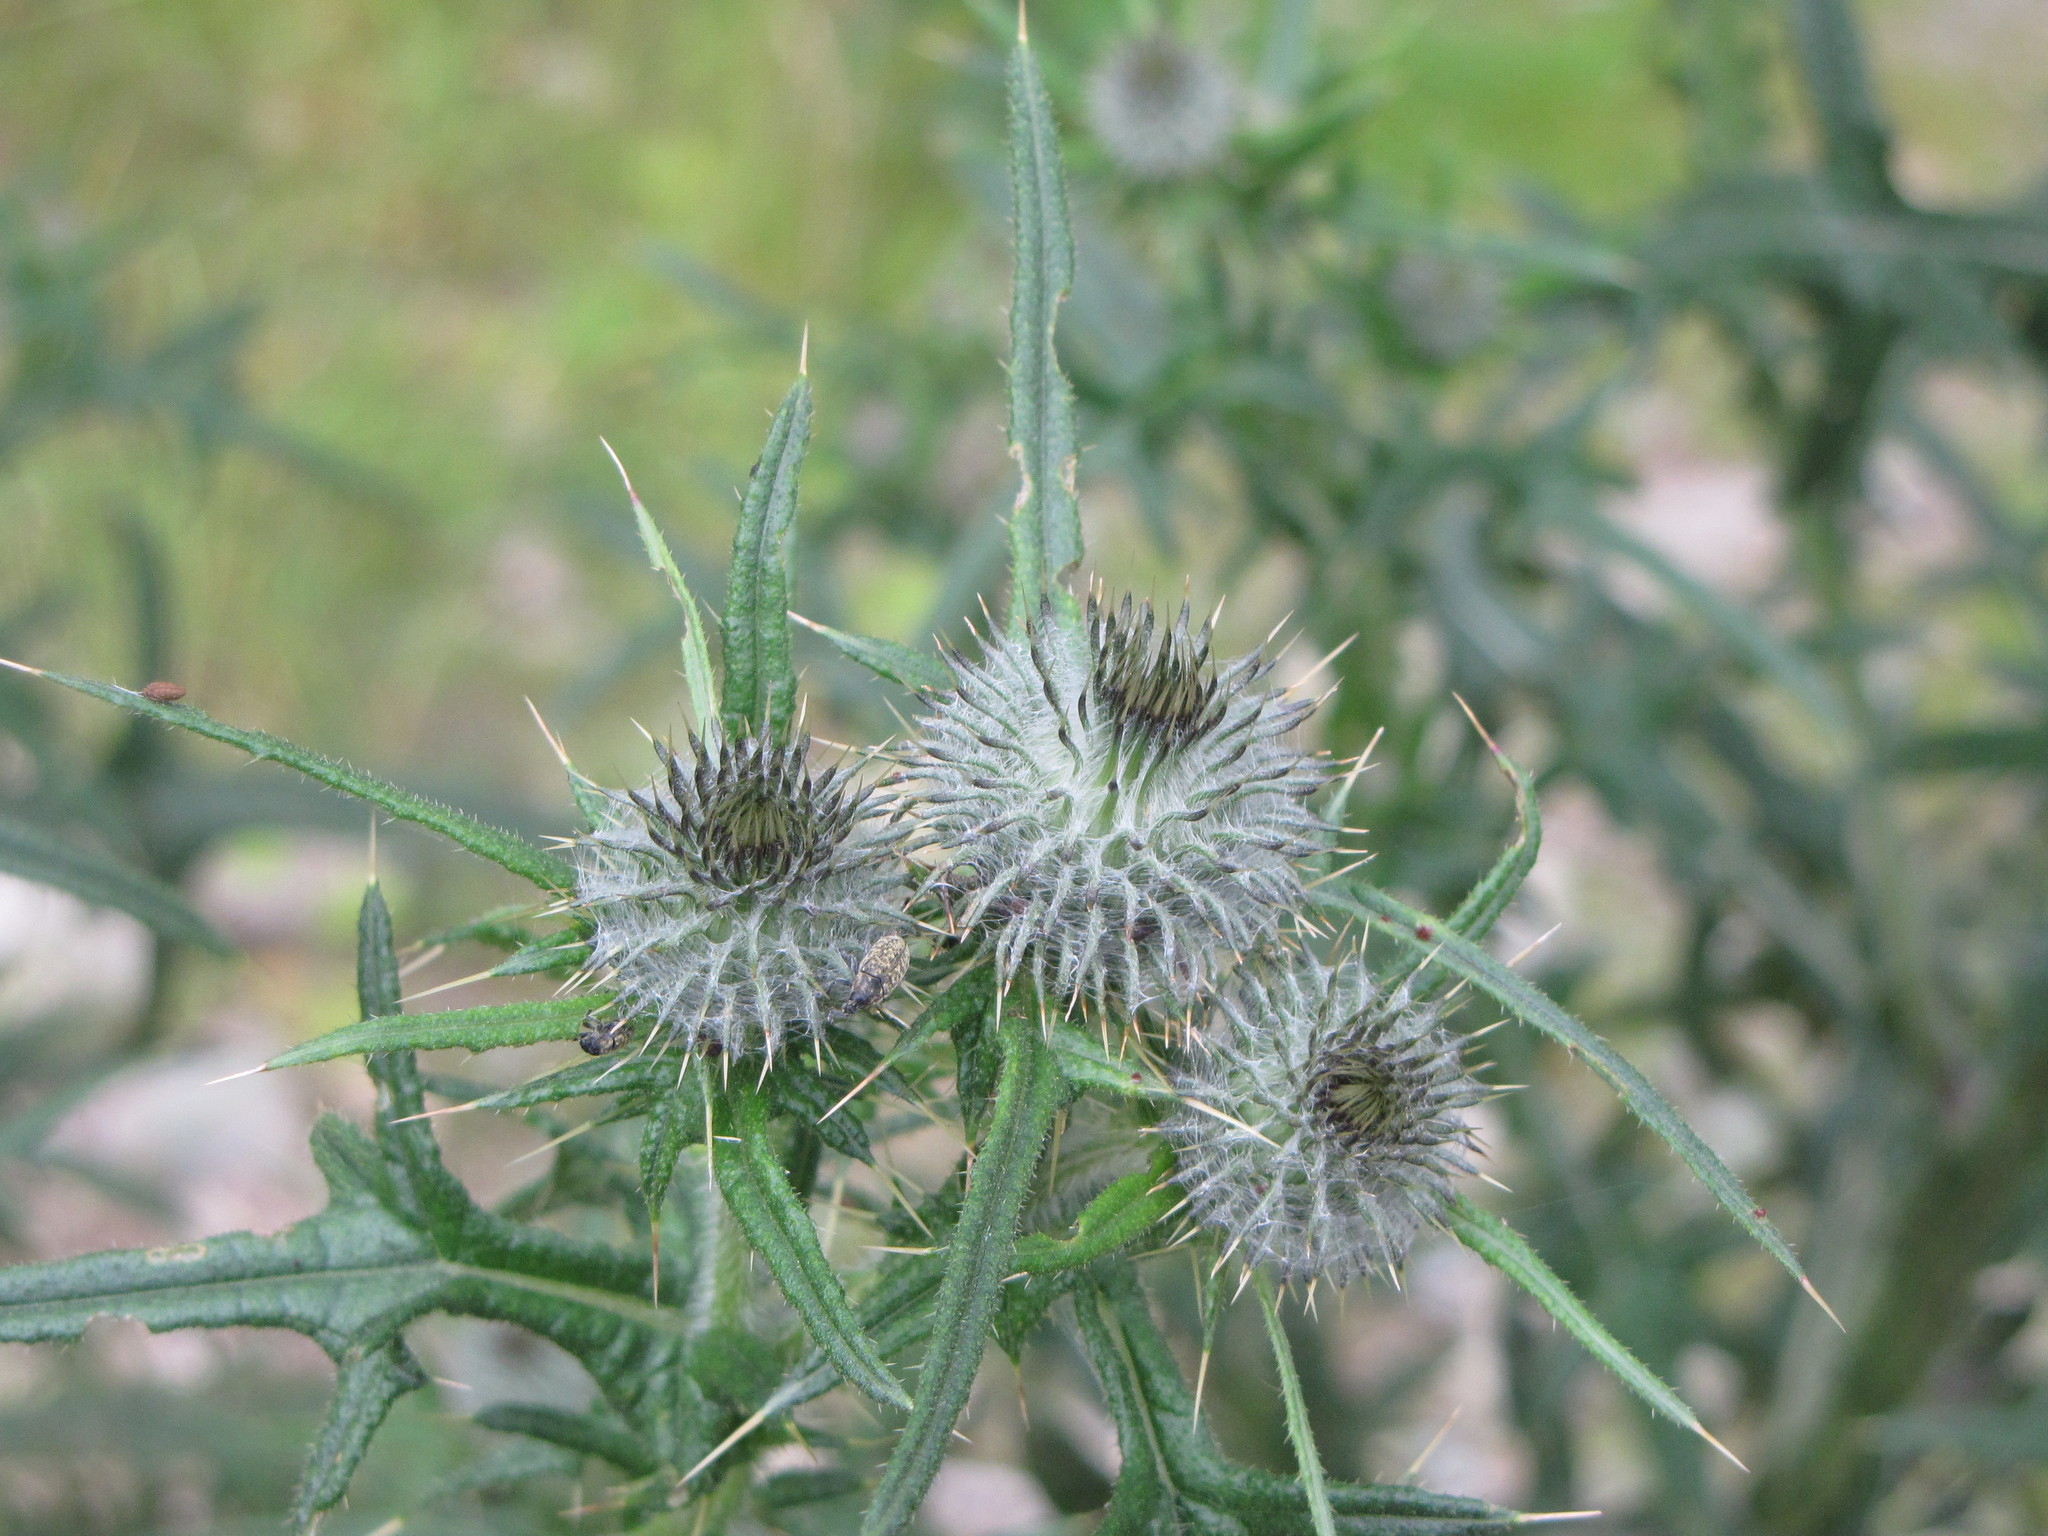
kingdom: Plantae
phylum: Tracheophyta
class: Magnoliopsida
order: Asterales
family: Asteraceae
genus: Cirsium
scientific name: Cirsium vulgare
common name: Bull thistle
